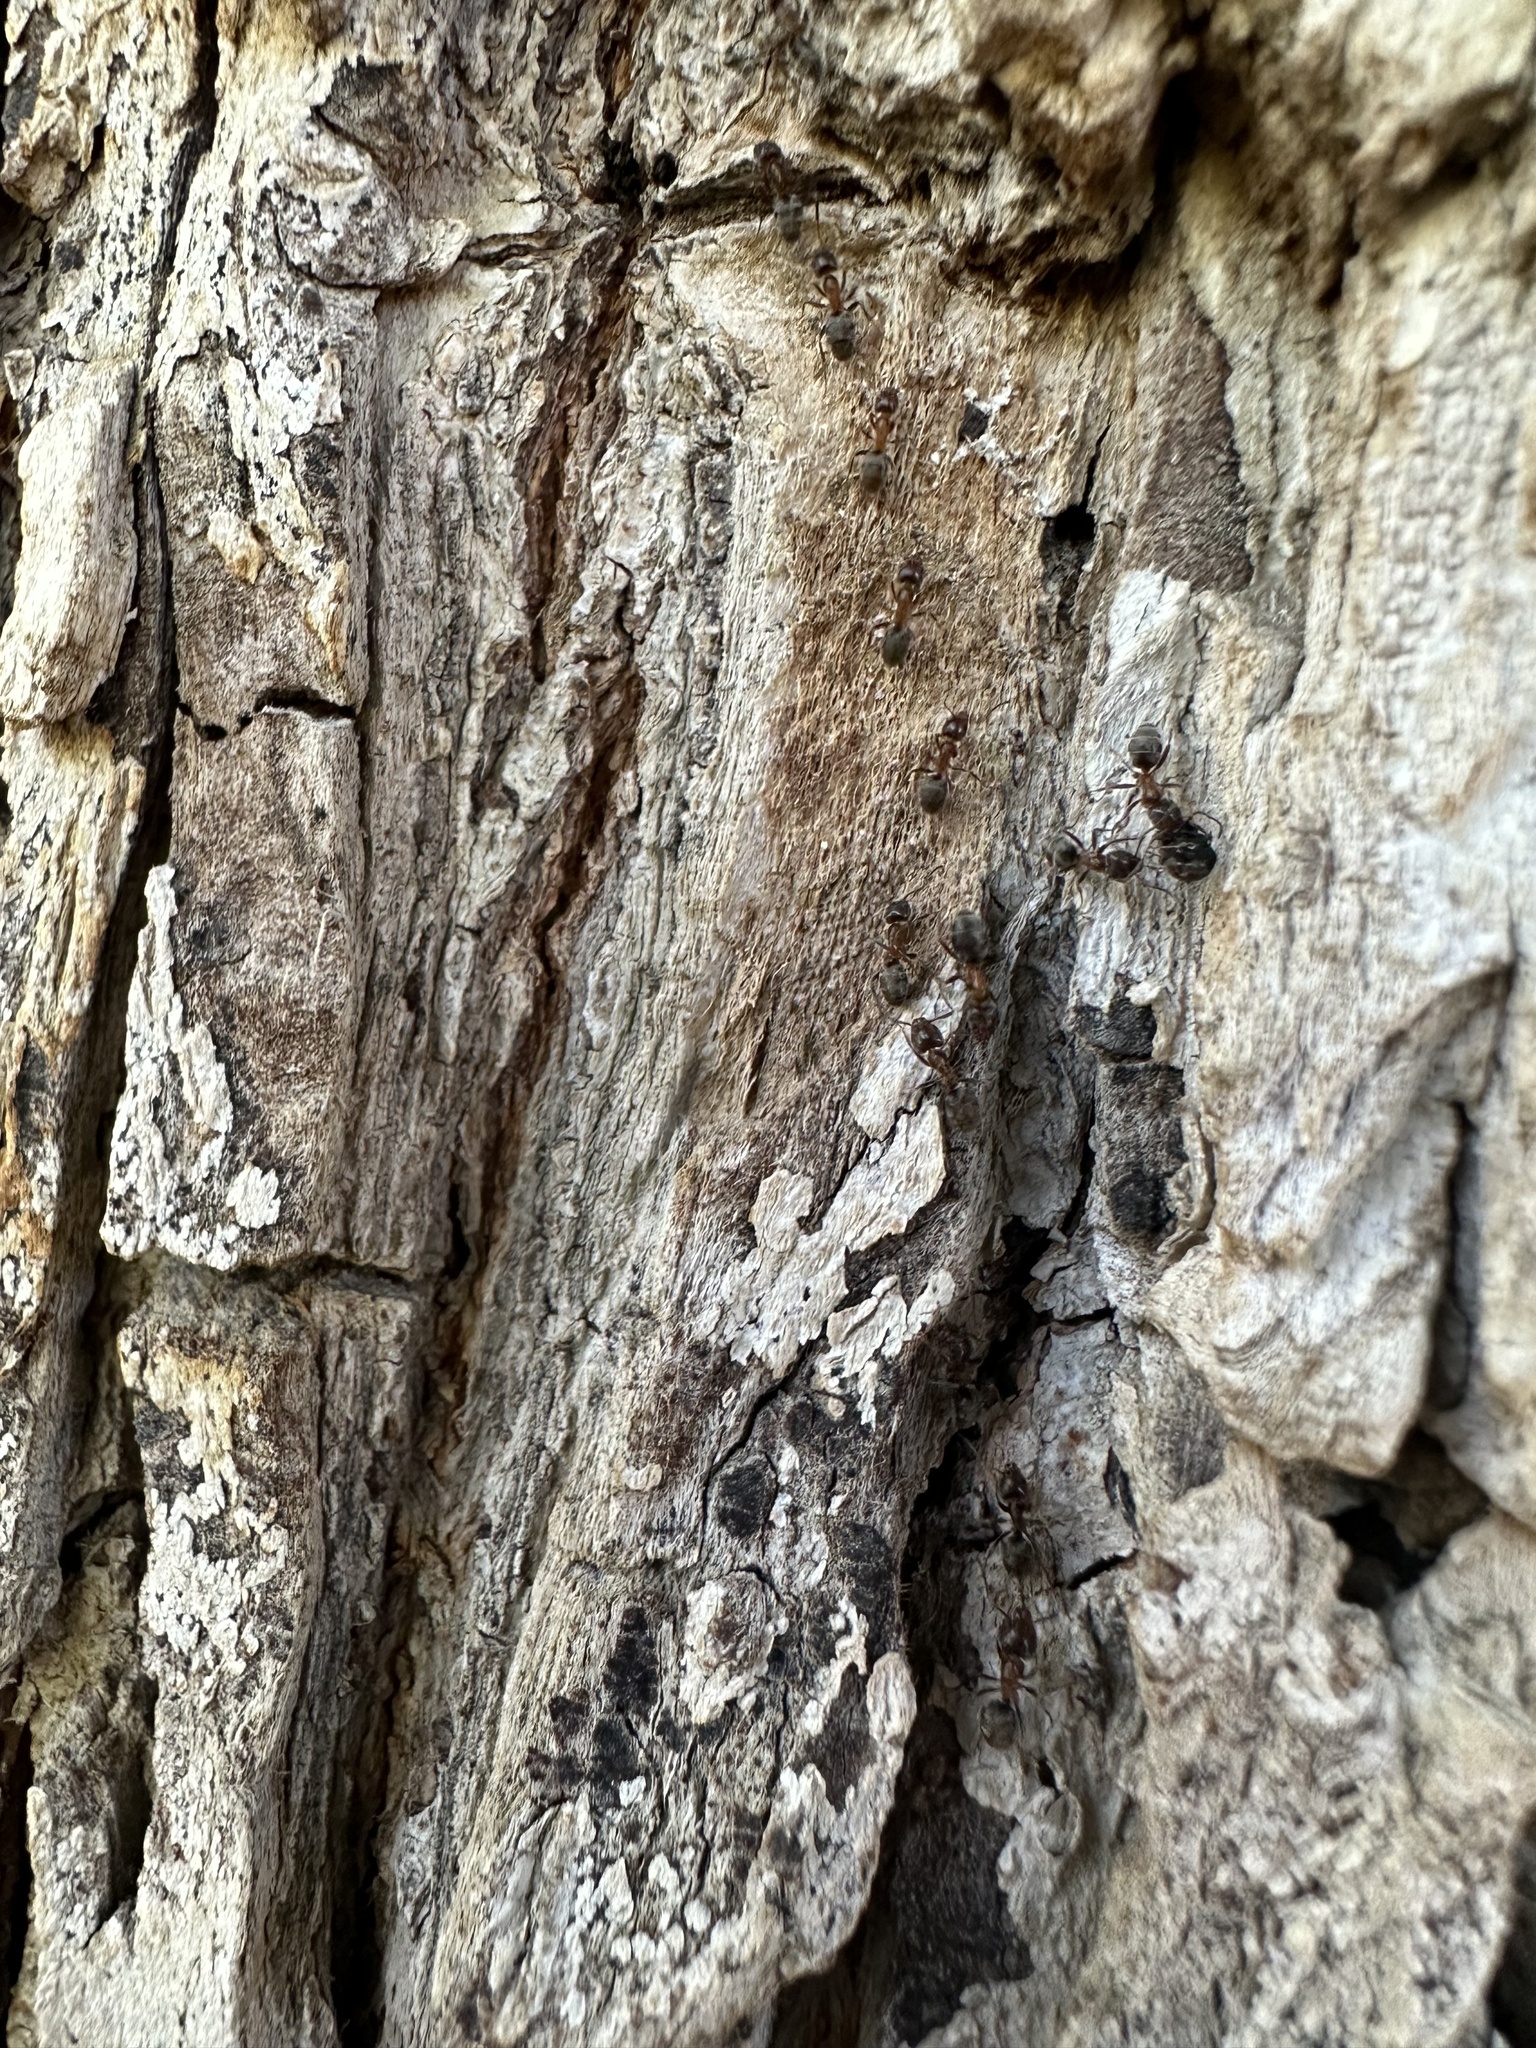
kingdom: Animalia
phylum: Arthropoda
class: Insecta
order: Hymenoptera
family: Formicidae
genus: Liometopum
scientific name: Liometopum occidentale
